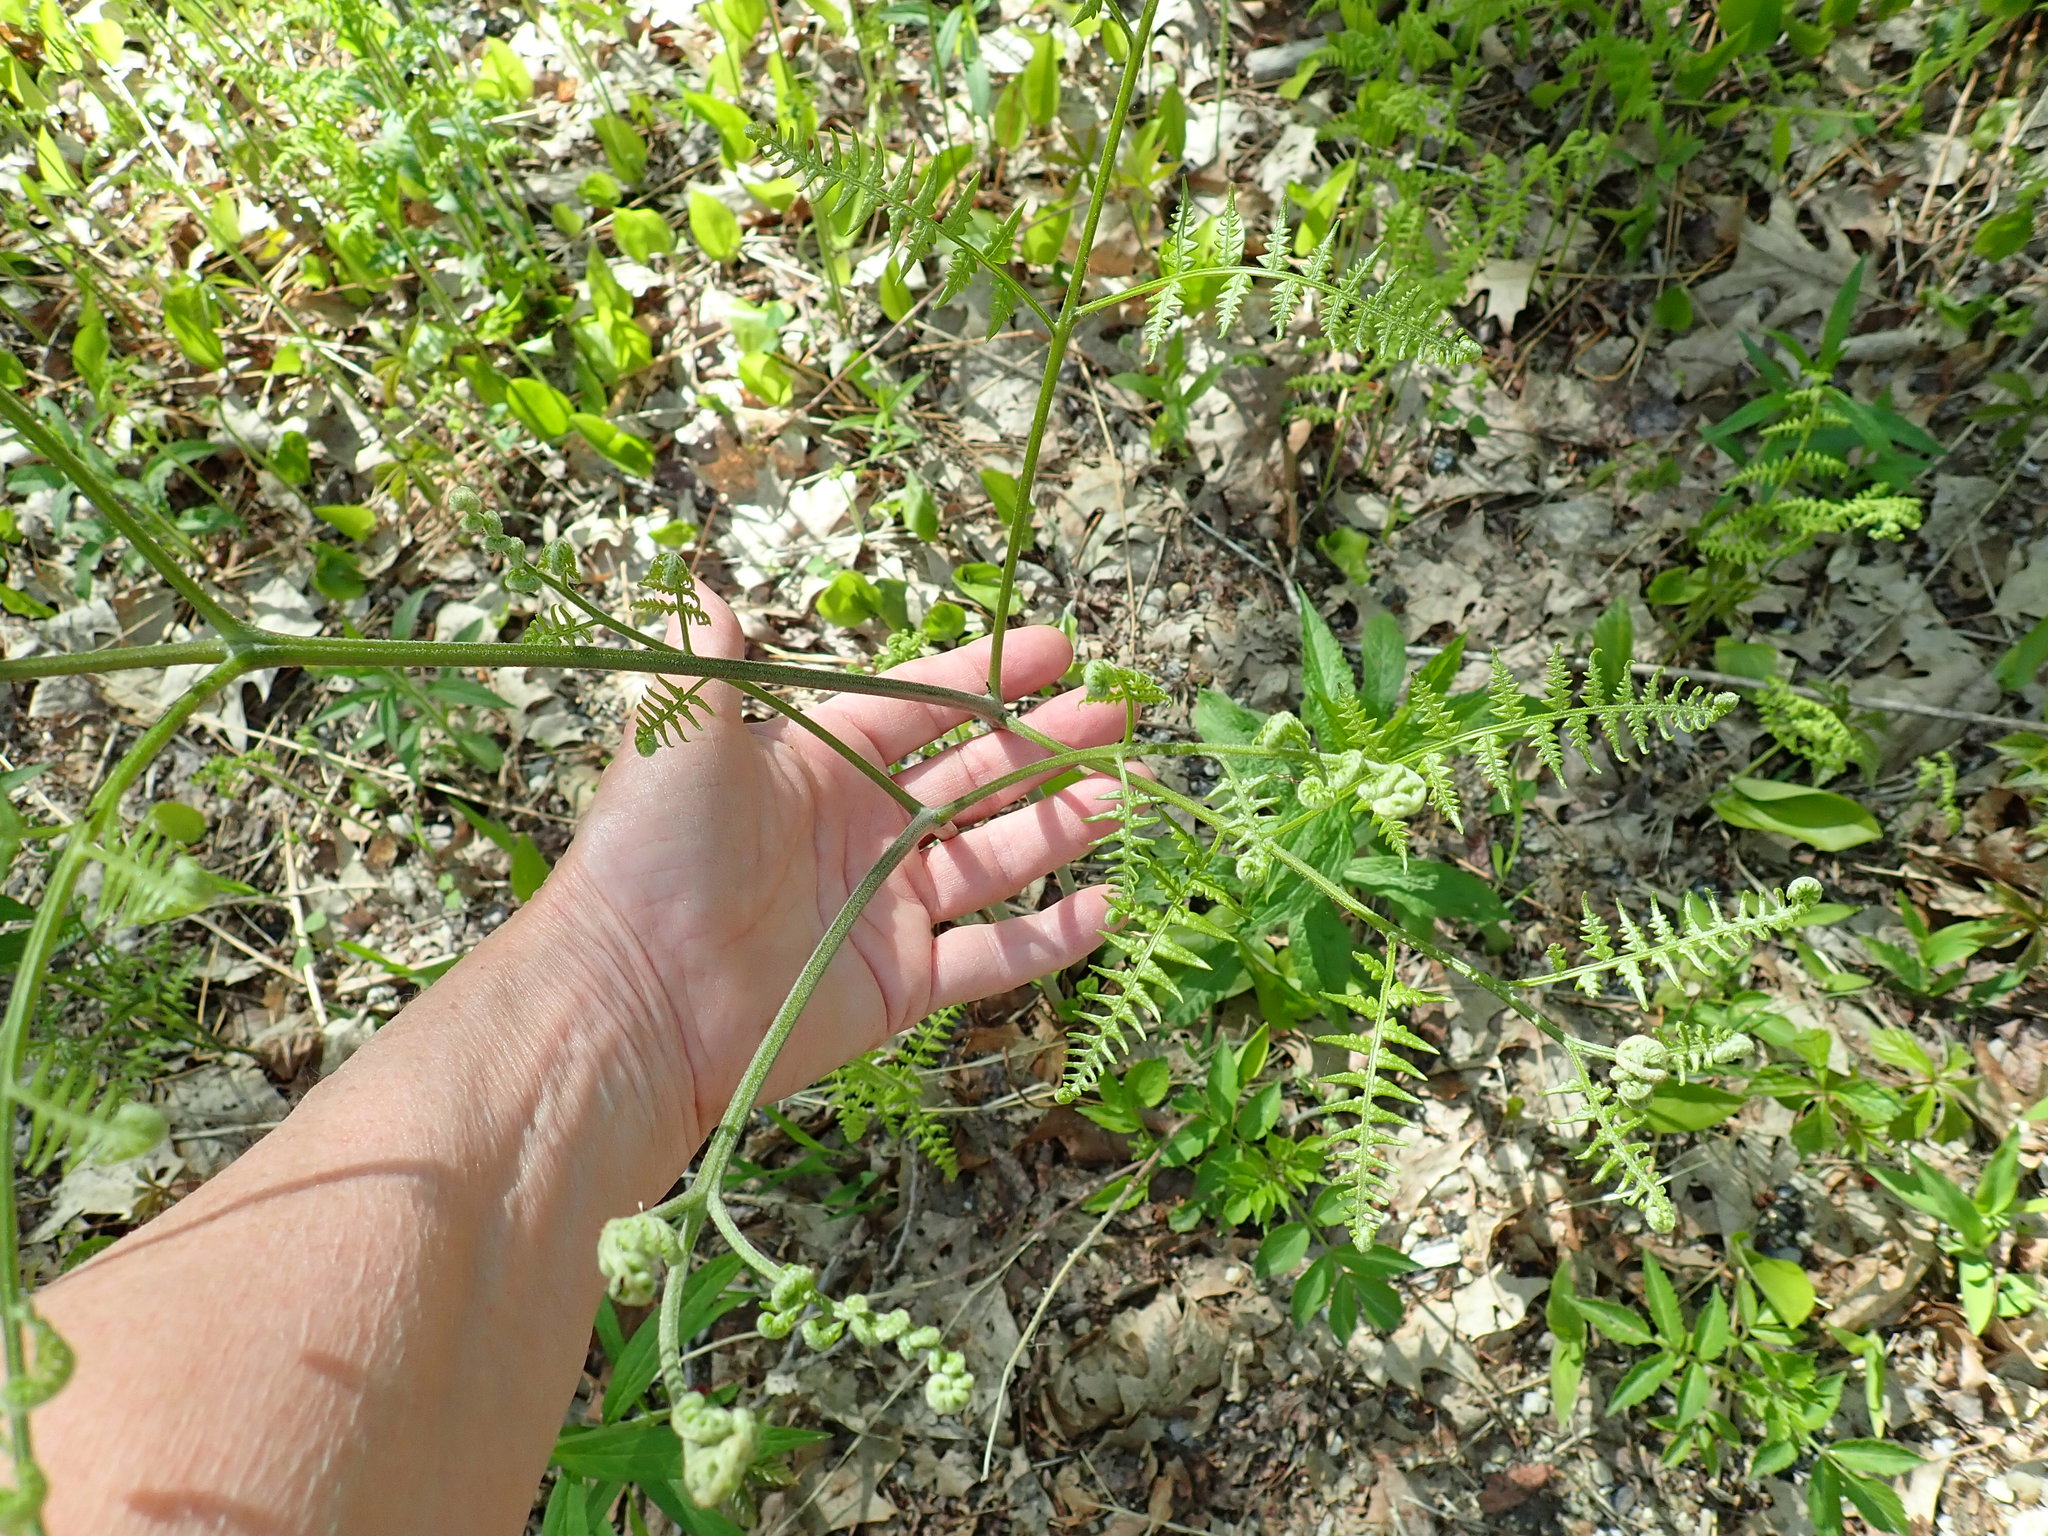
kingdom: Plantae
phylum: Tracheophyta
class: Polypodiopsida
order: Polypodiales
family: Dennstaedtiaceae
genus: Pteridium
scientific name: Pteridium aquilinum
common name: Bracken
